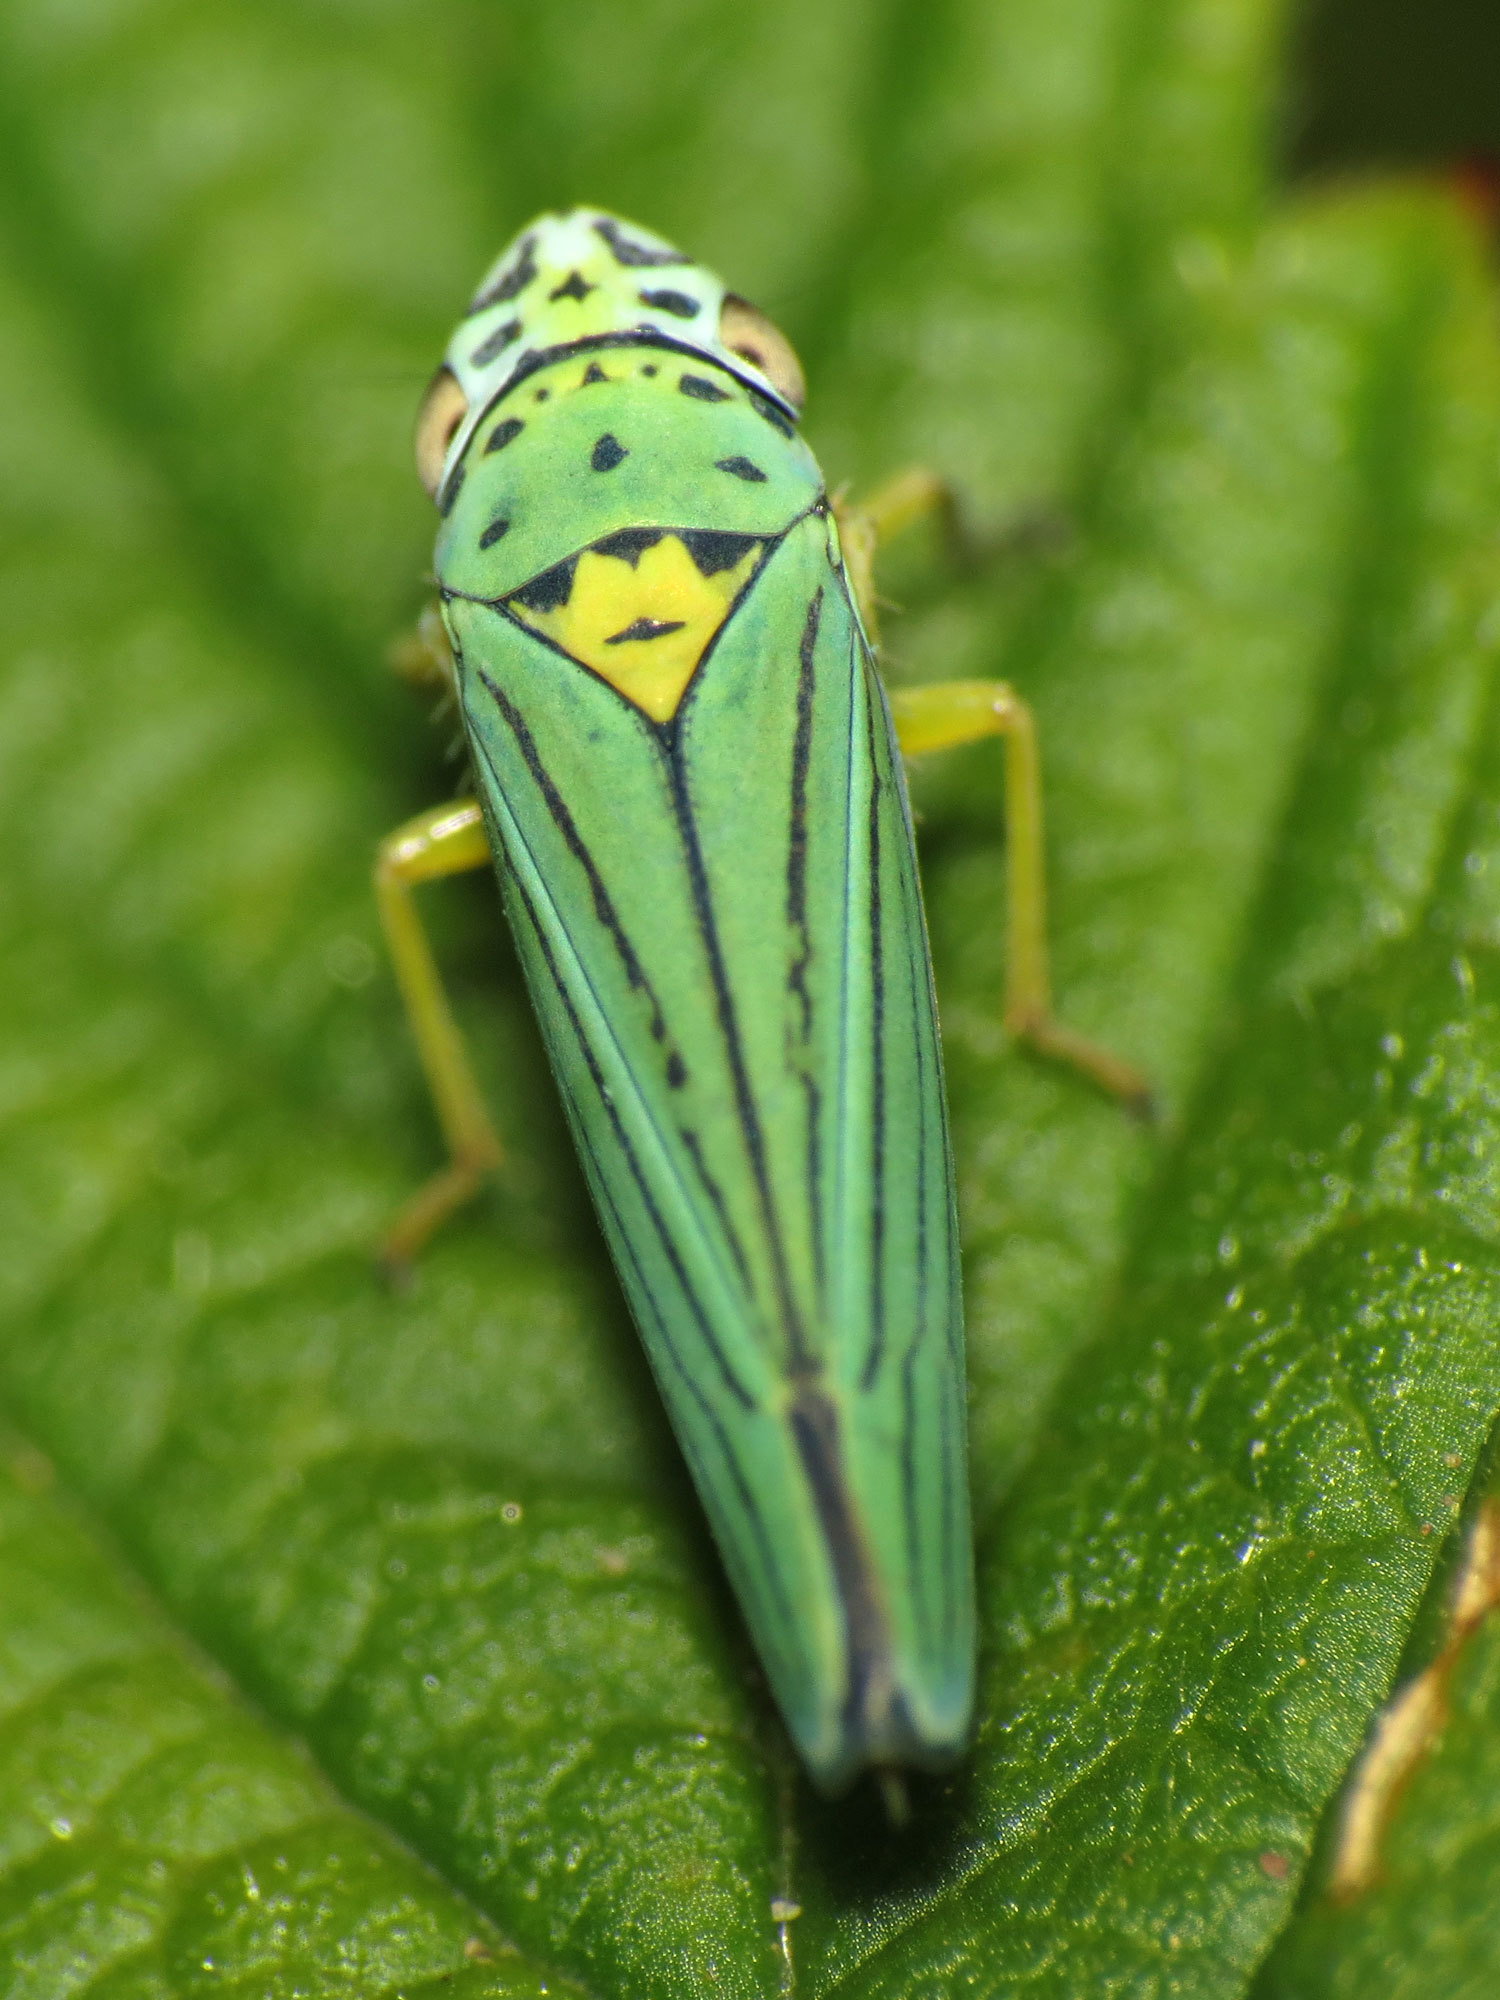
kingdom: Animalia
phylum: Arthropoda
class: Insecta
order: Hemiptera
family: Cicadellidae
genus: Graphocephala
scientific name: Graphocephala atropunctata
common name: Blue-green sharpshooter
